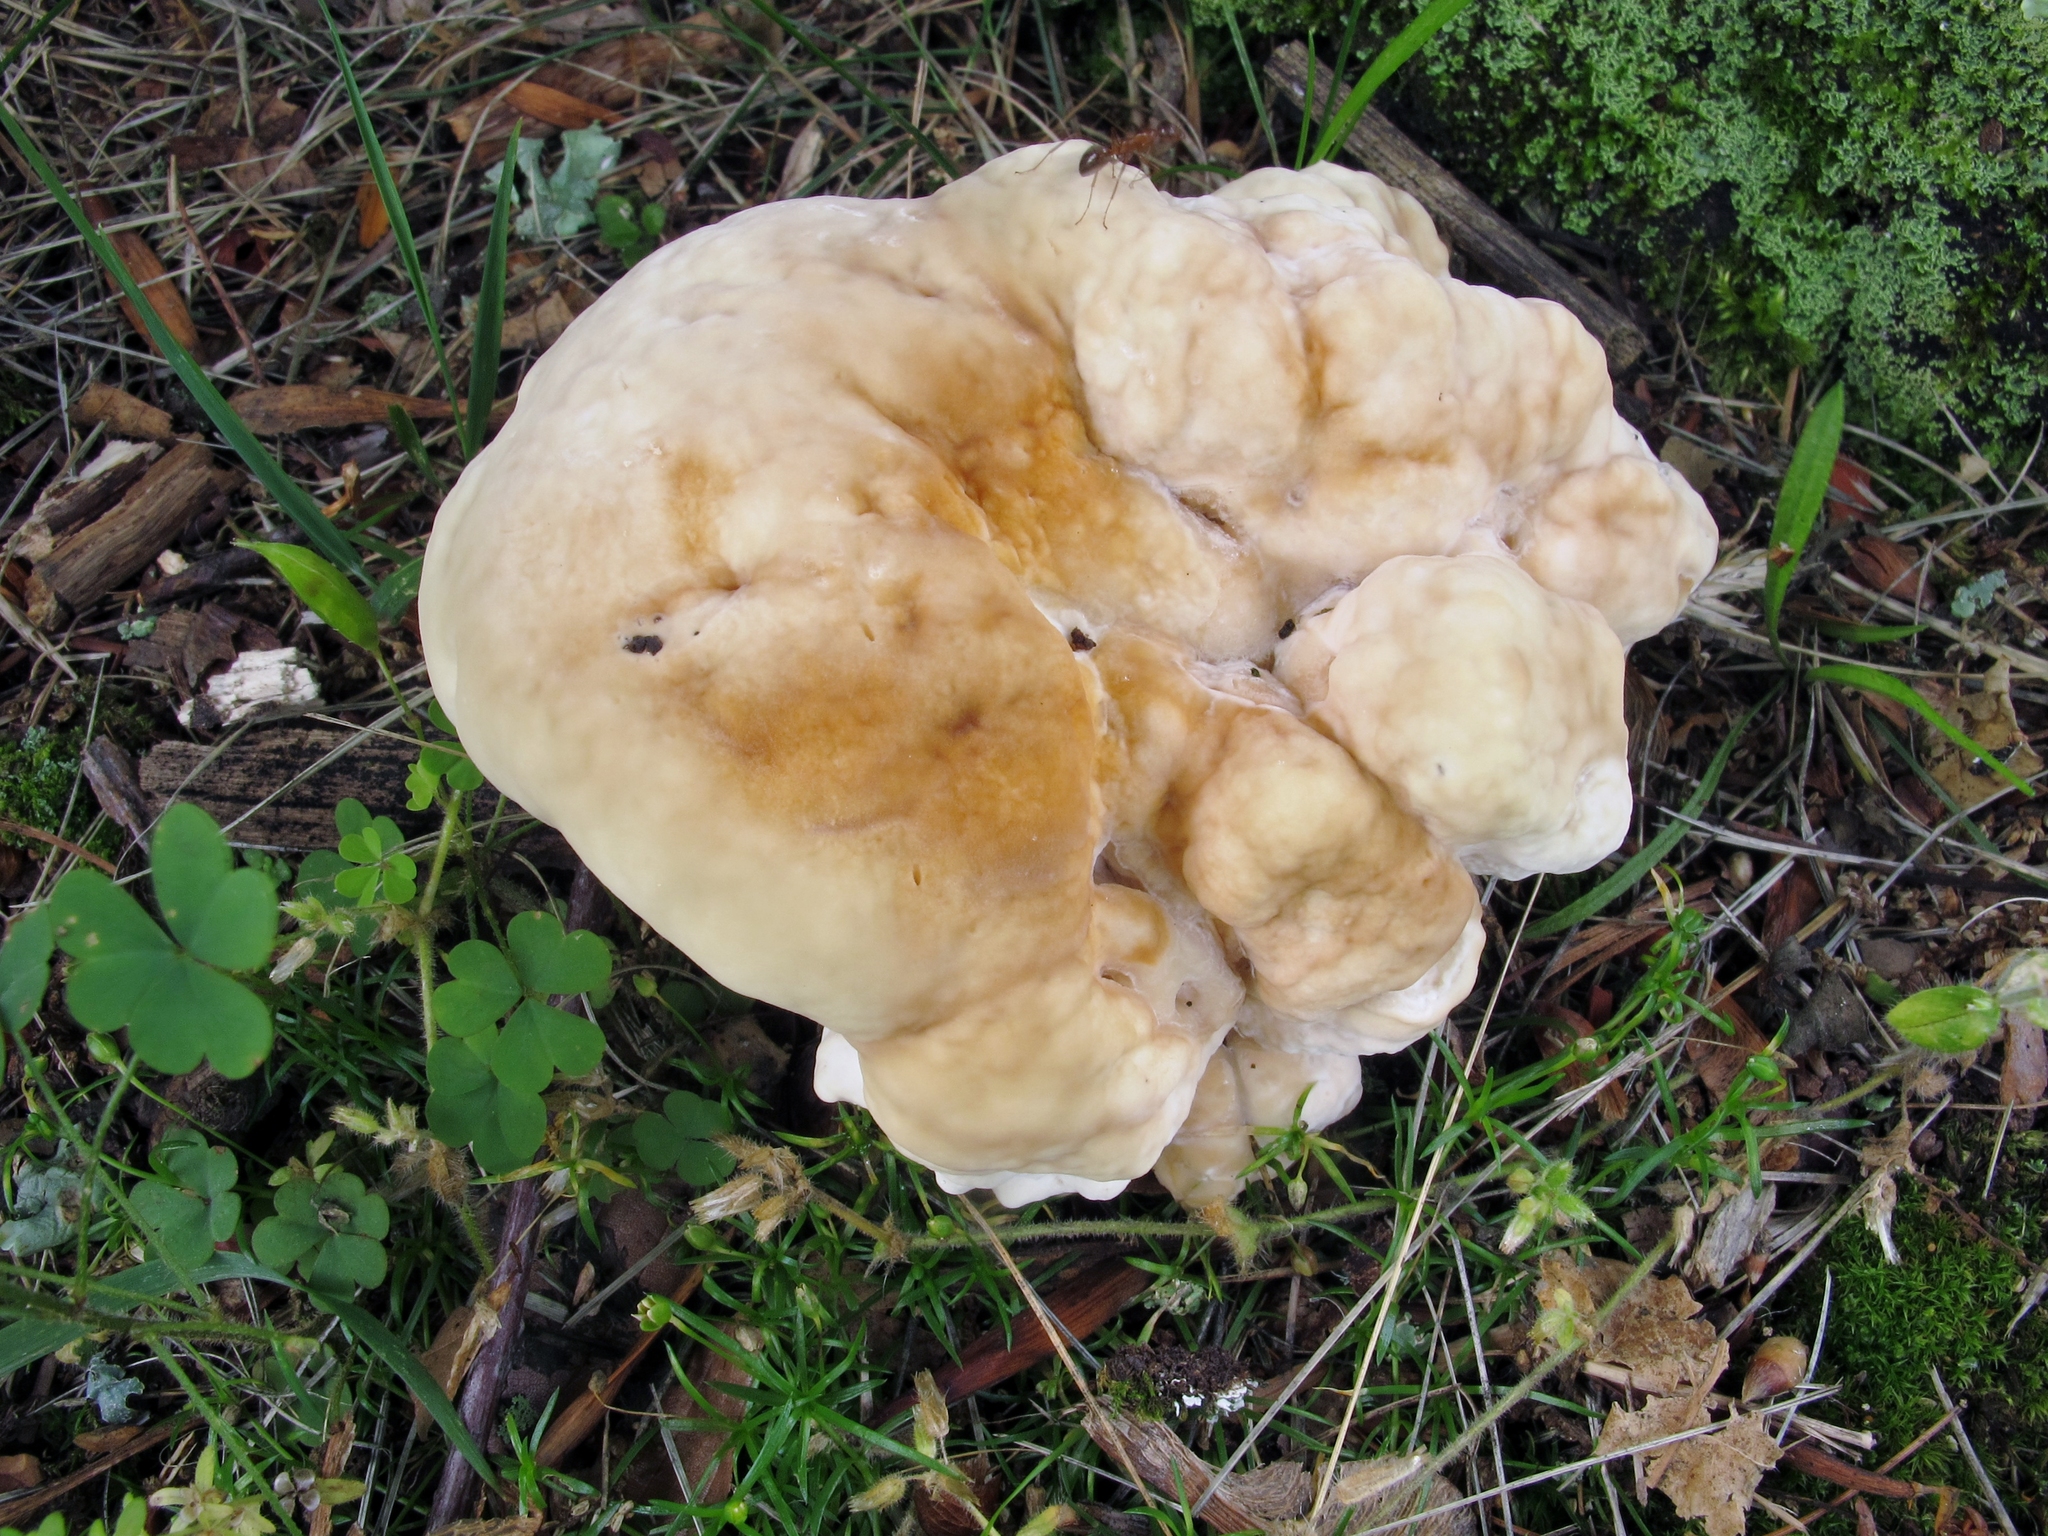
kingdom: Fungi
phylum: Basidiomycota
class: Agaricomycetes
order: Russulales
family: Bondarzewiaceae
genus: Bondarzewia
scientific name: Bondarzewia berkeleyi
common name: Berkeley's polypore
